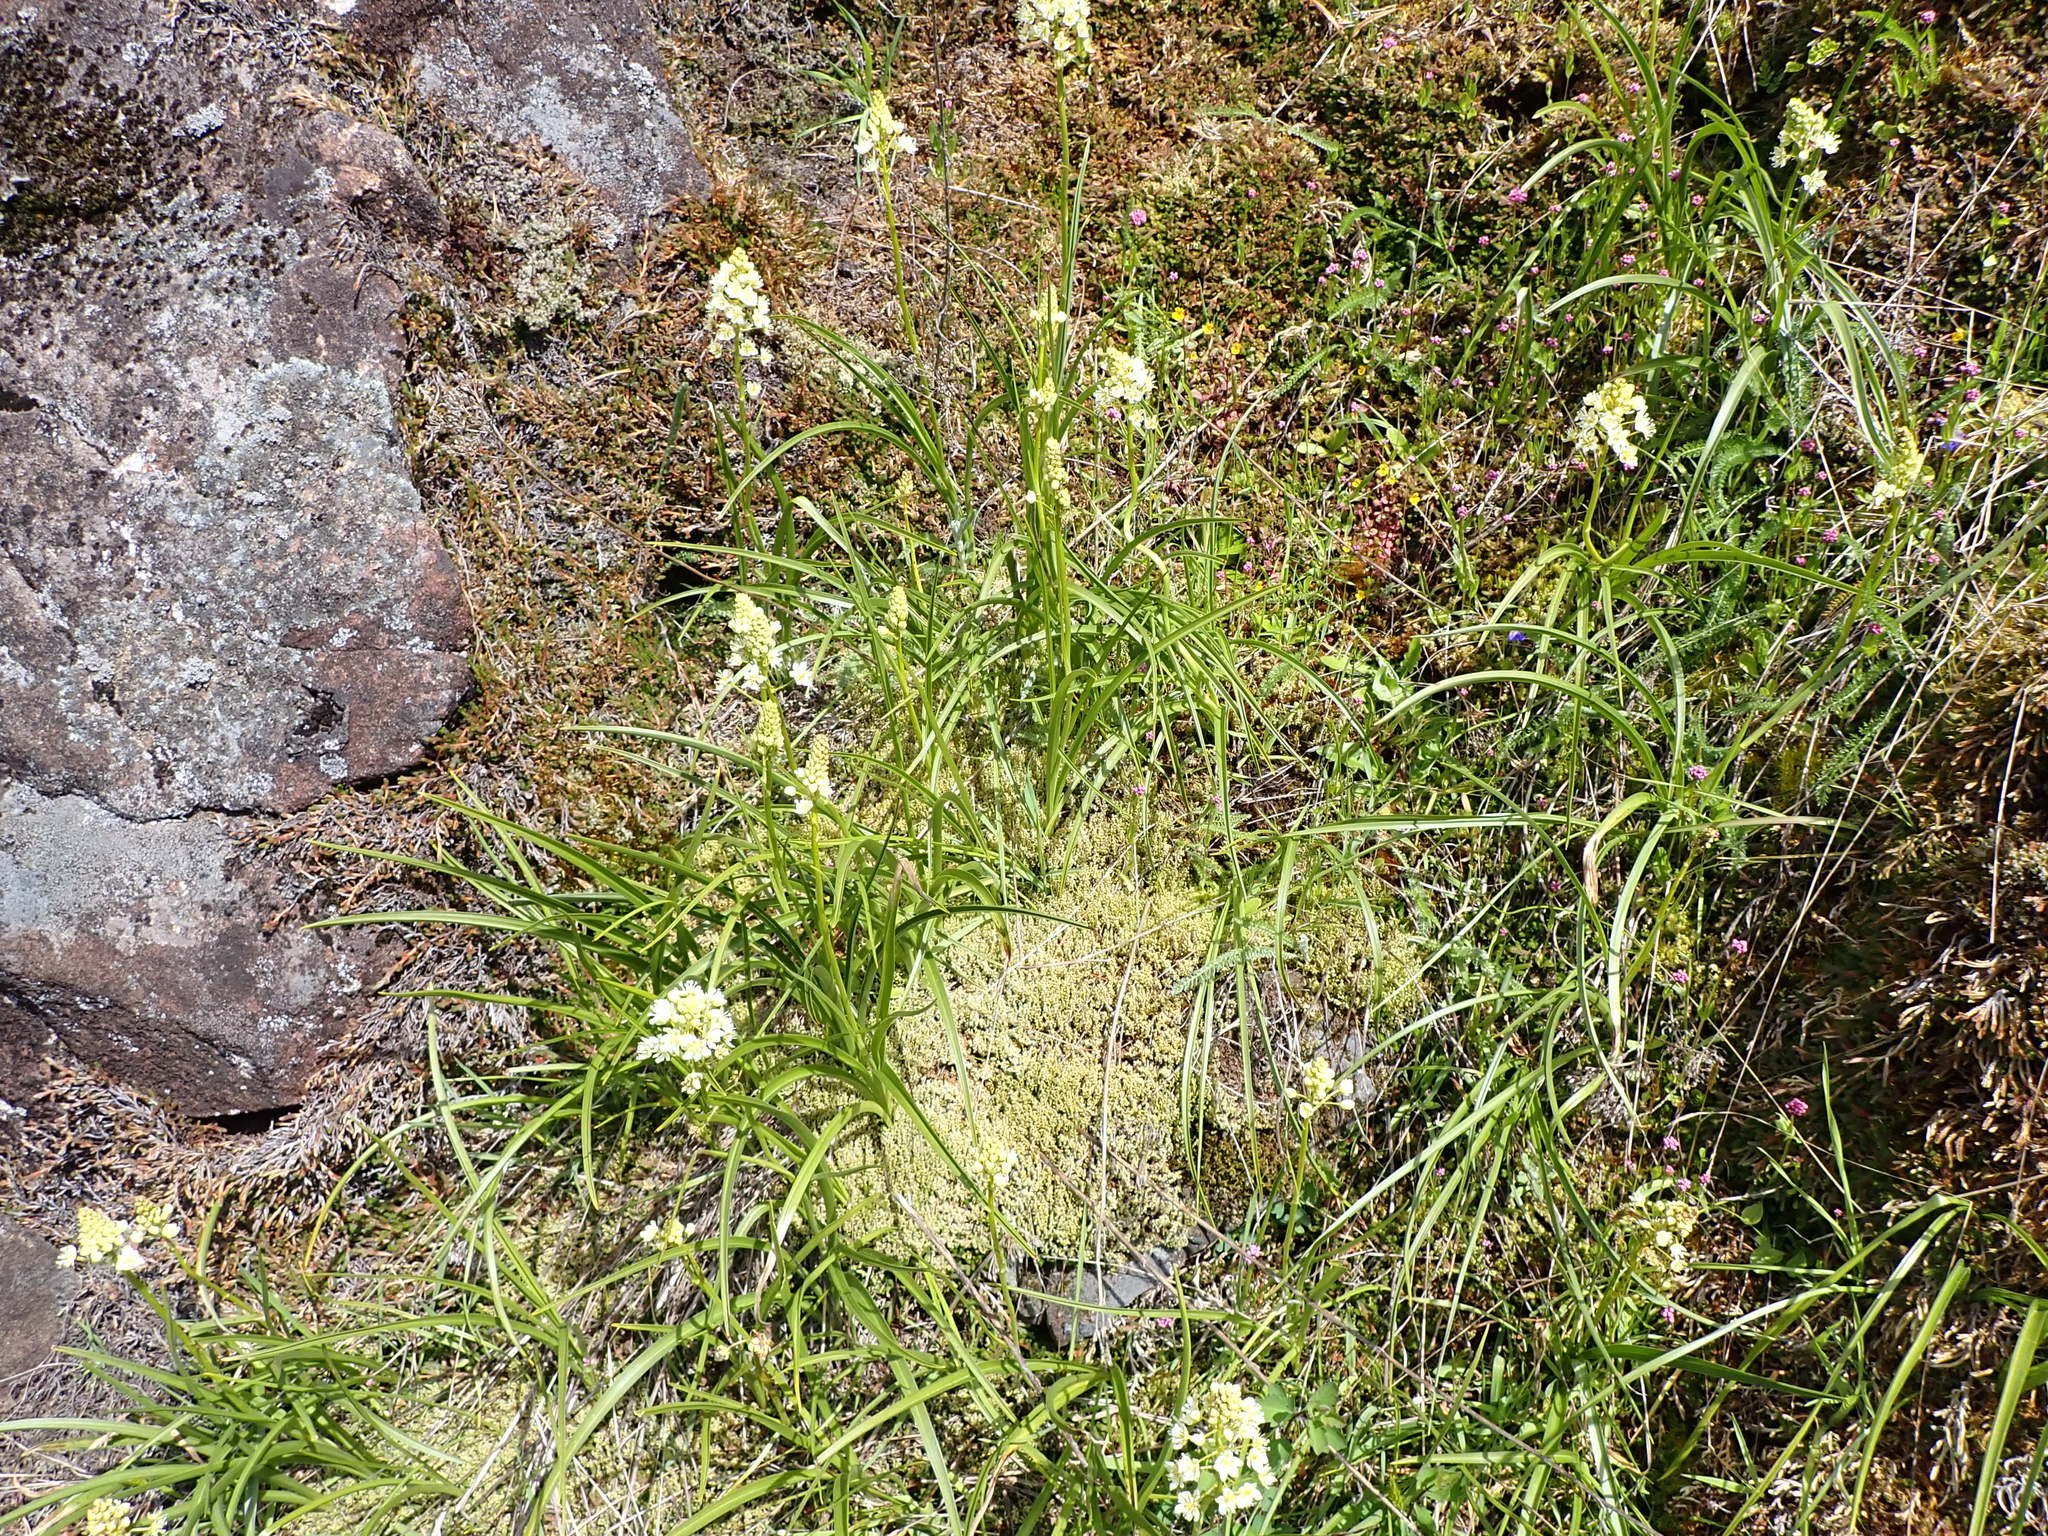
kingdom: Plantae
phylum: Tracheophyta
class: Liliopsida
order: Liliales
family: Melanthiaceae
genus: Toxicoscordion
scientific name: Toxicoscordion venenosum
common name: Meadow death camas
